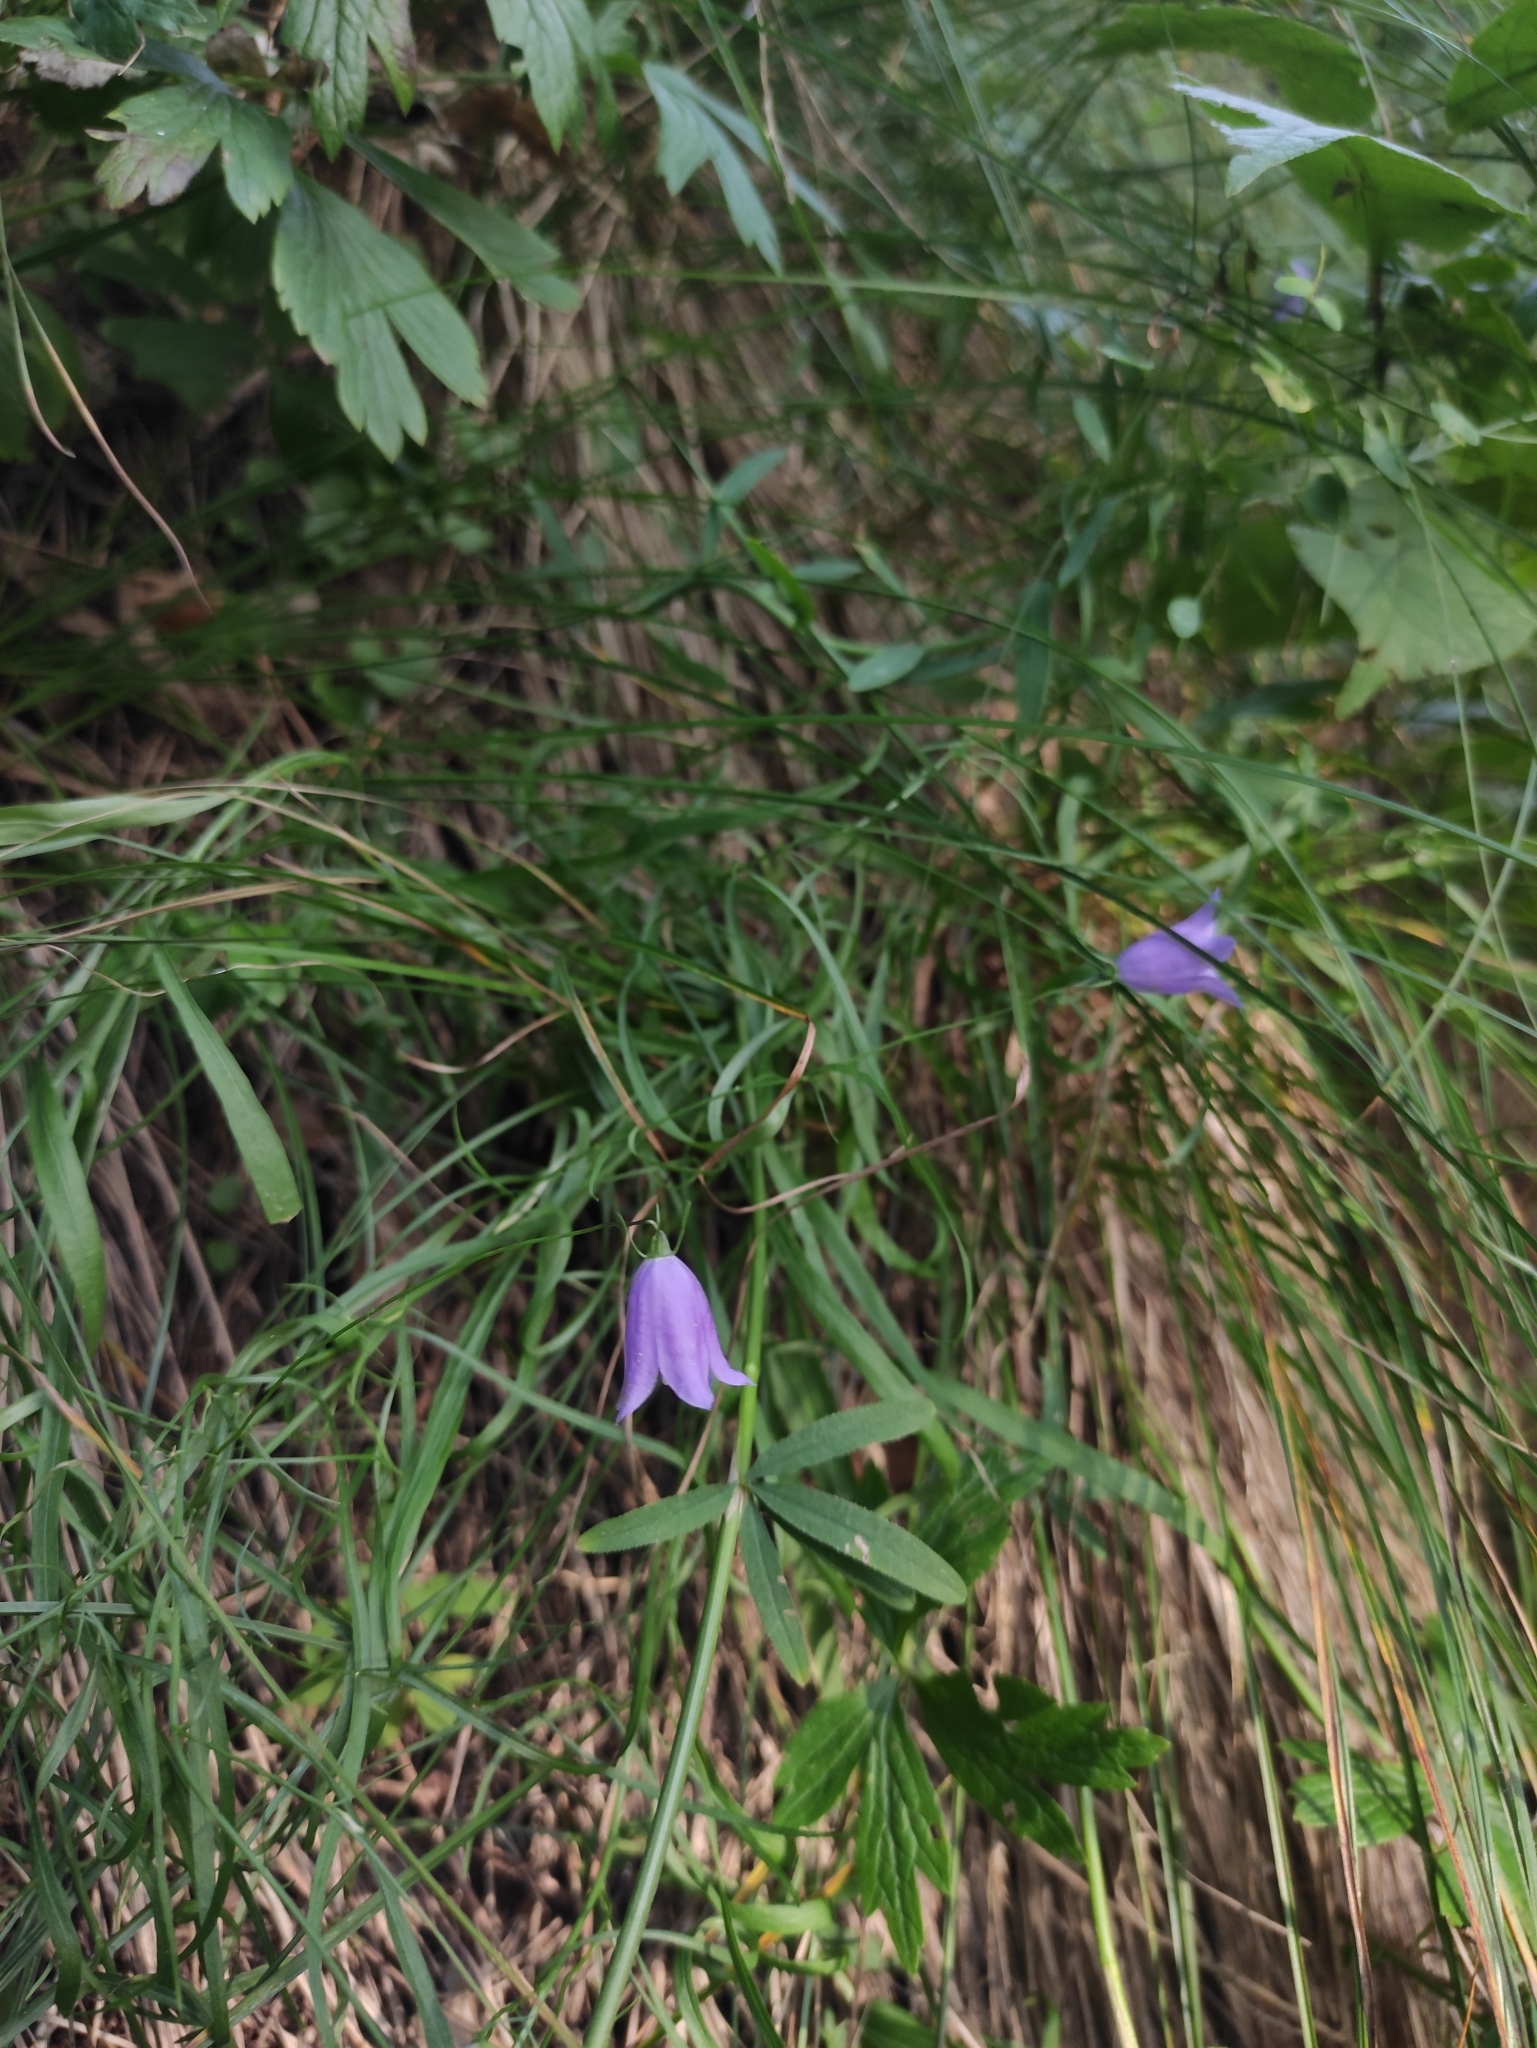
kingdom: Plantae
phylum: Tracheophyta
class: Magnoliopsida
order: Asterales
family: Campanulaceae
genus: Campanula
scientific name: Campanula rotundifolia
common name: Harebell
